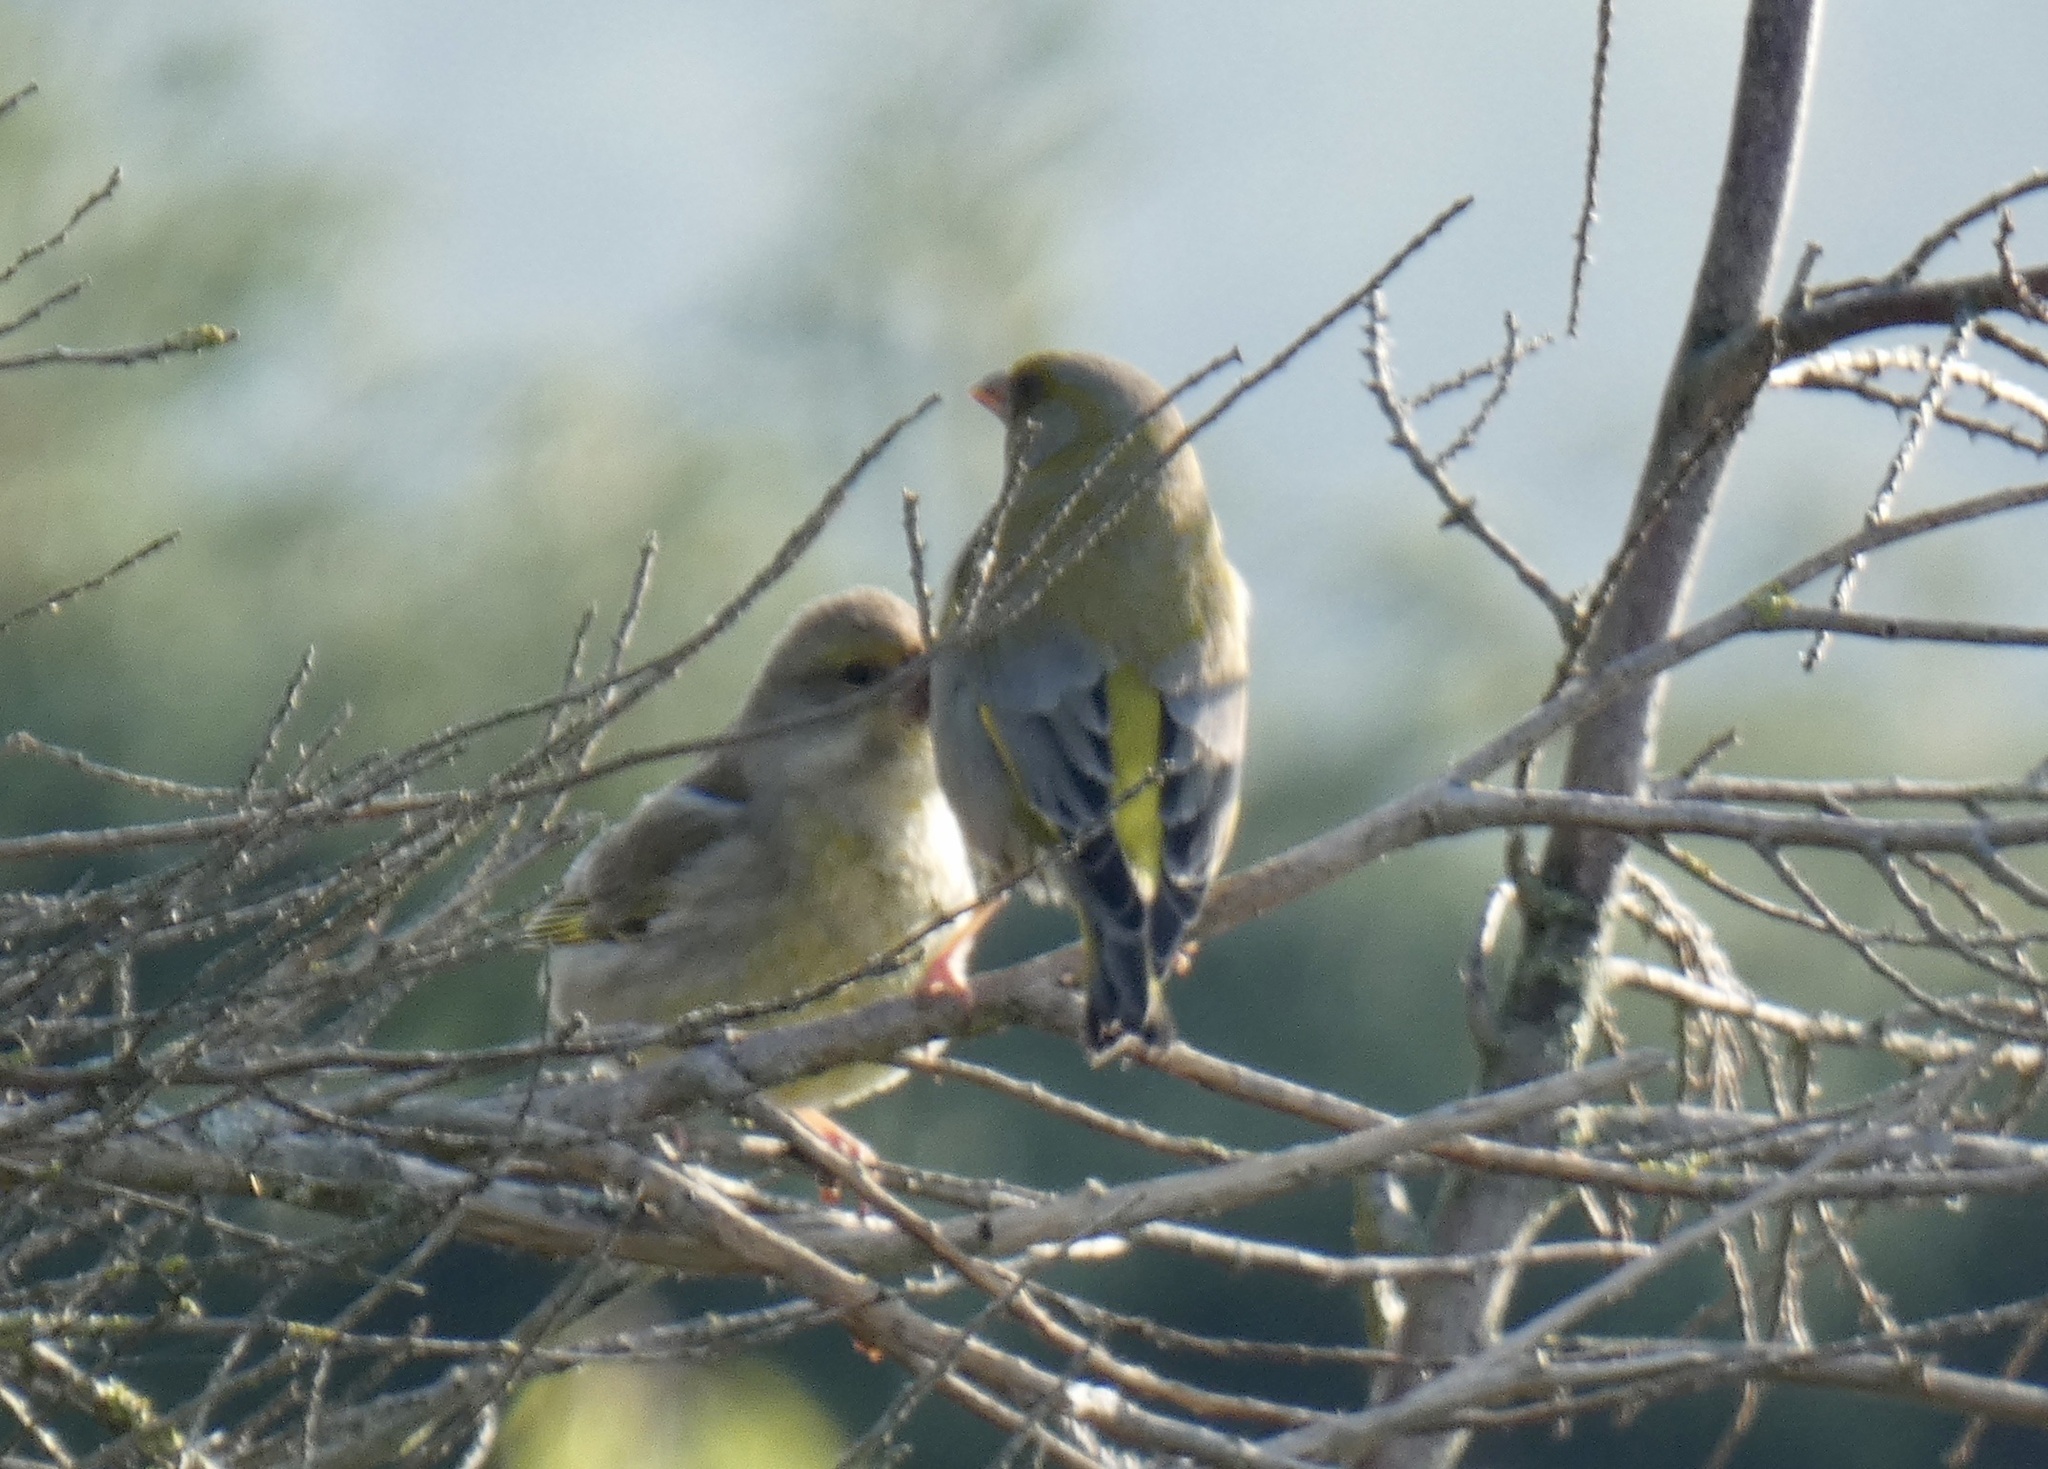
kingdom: Plantae
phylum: Tracheophyta
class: Liliopsida
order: Poales
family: Poaceae
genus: Chloris
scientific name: Chloris chloris
